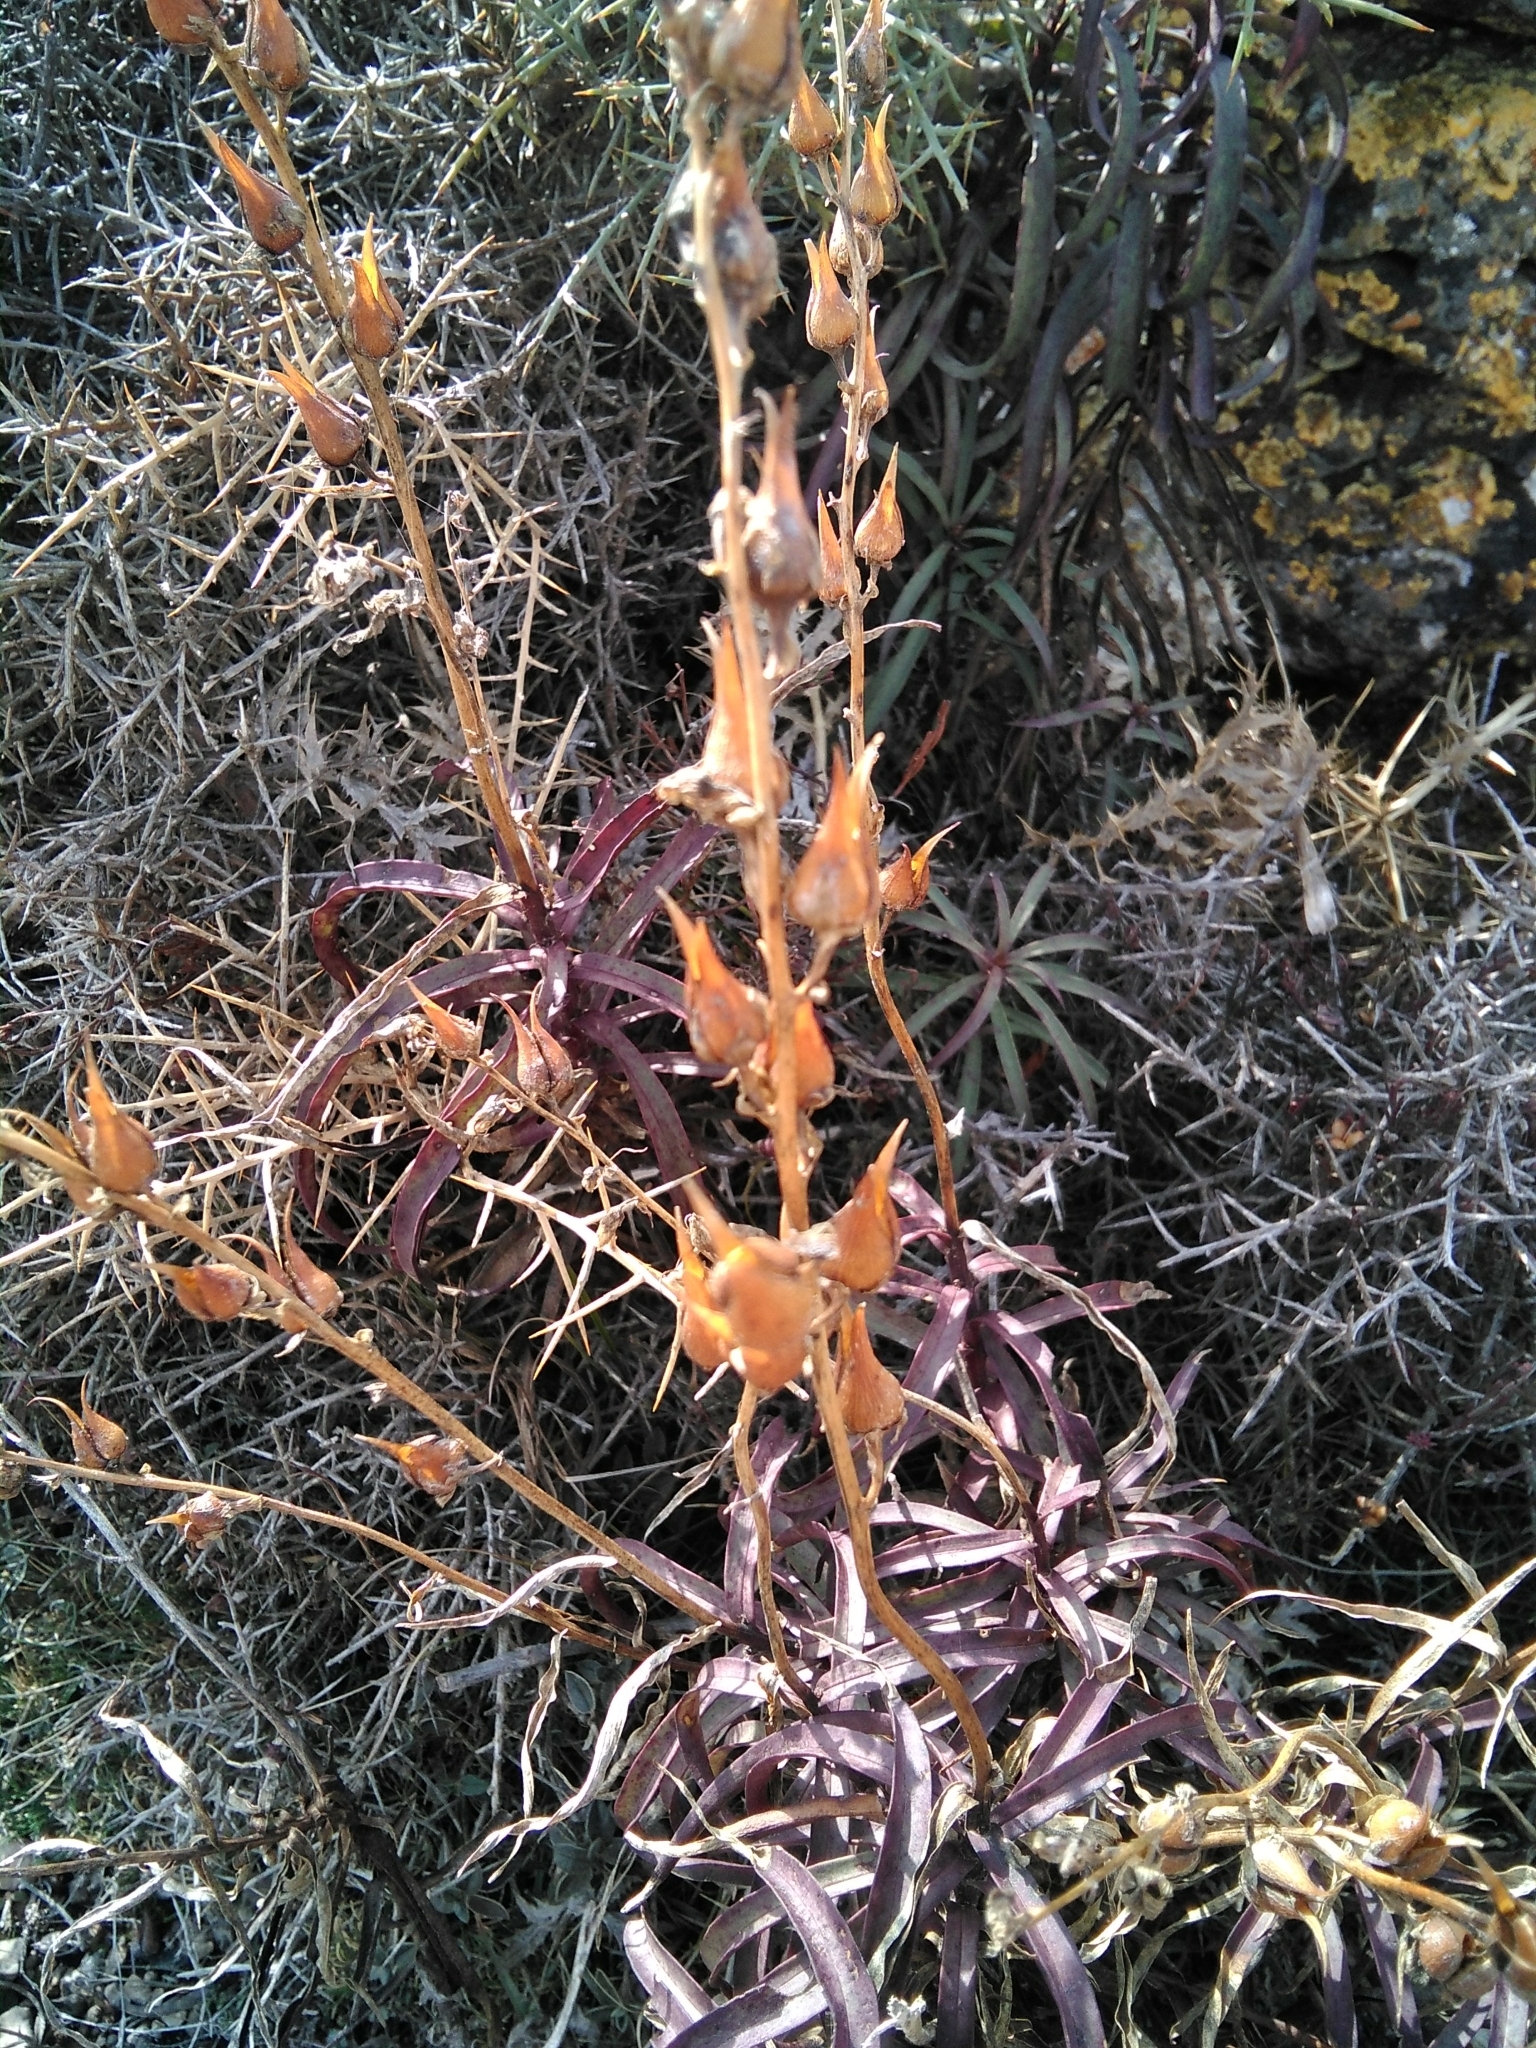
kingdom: Plantae
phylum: Tracheophyta
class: Magnoliopsida
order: Lamiales
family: Plantaginaceae
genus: Digitalis
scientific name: Digitalis obscura
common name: Willow-leaf foxglove
